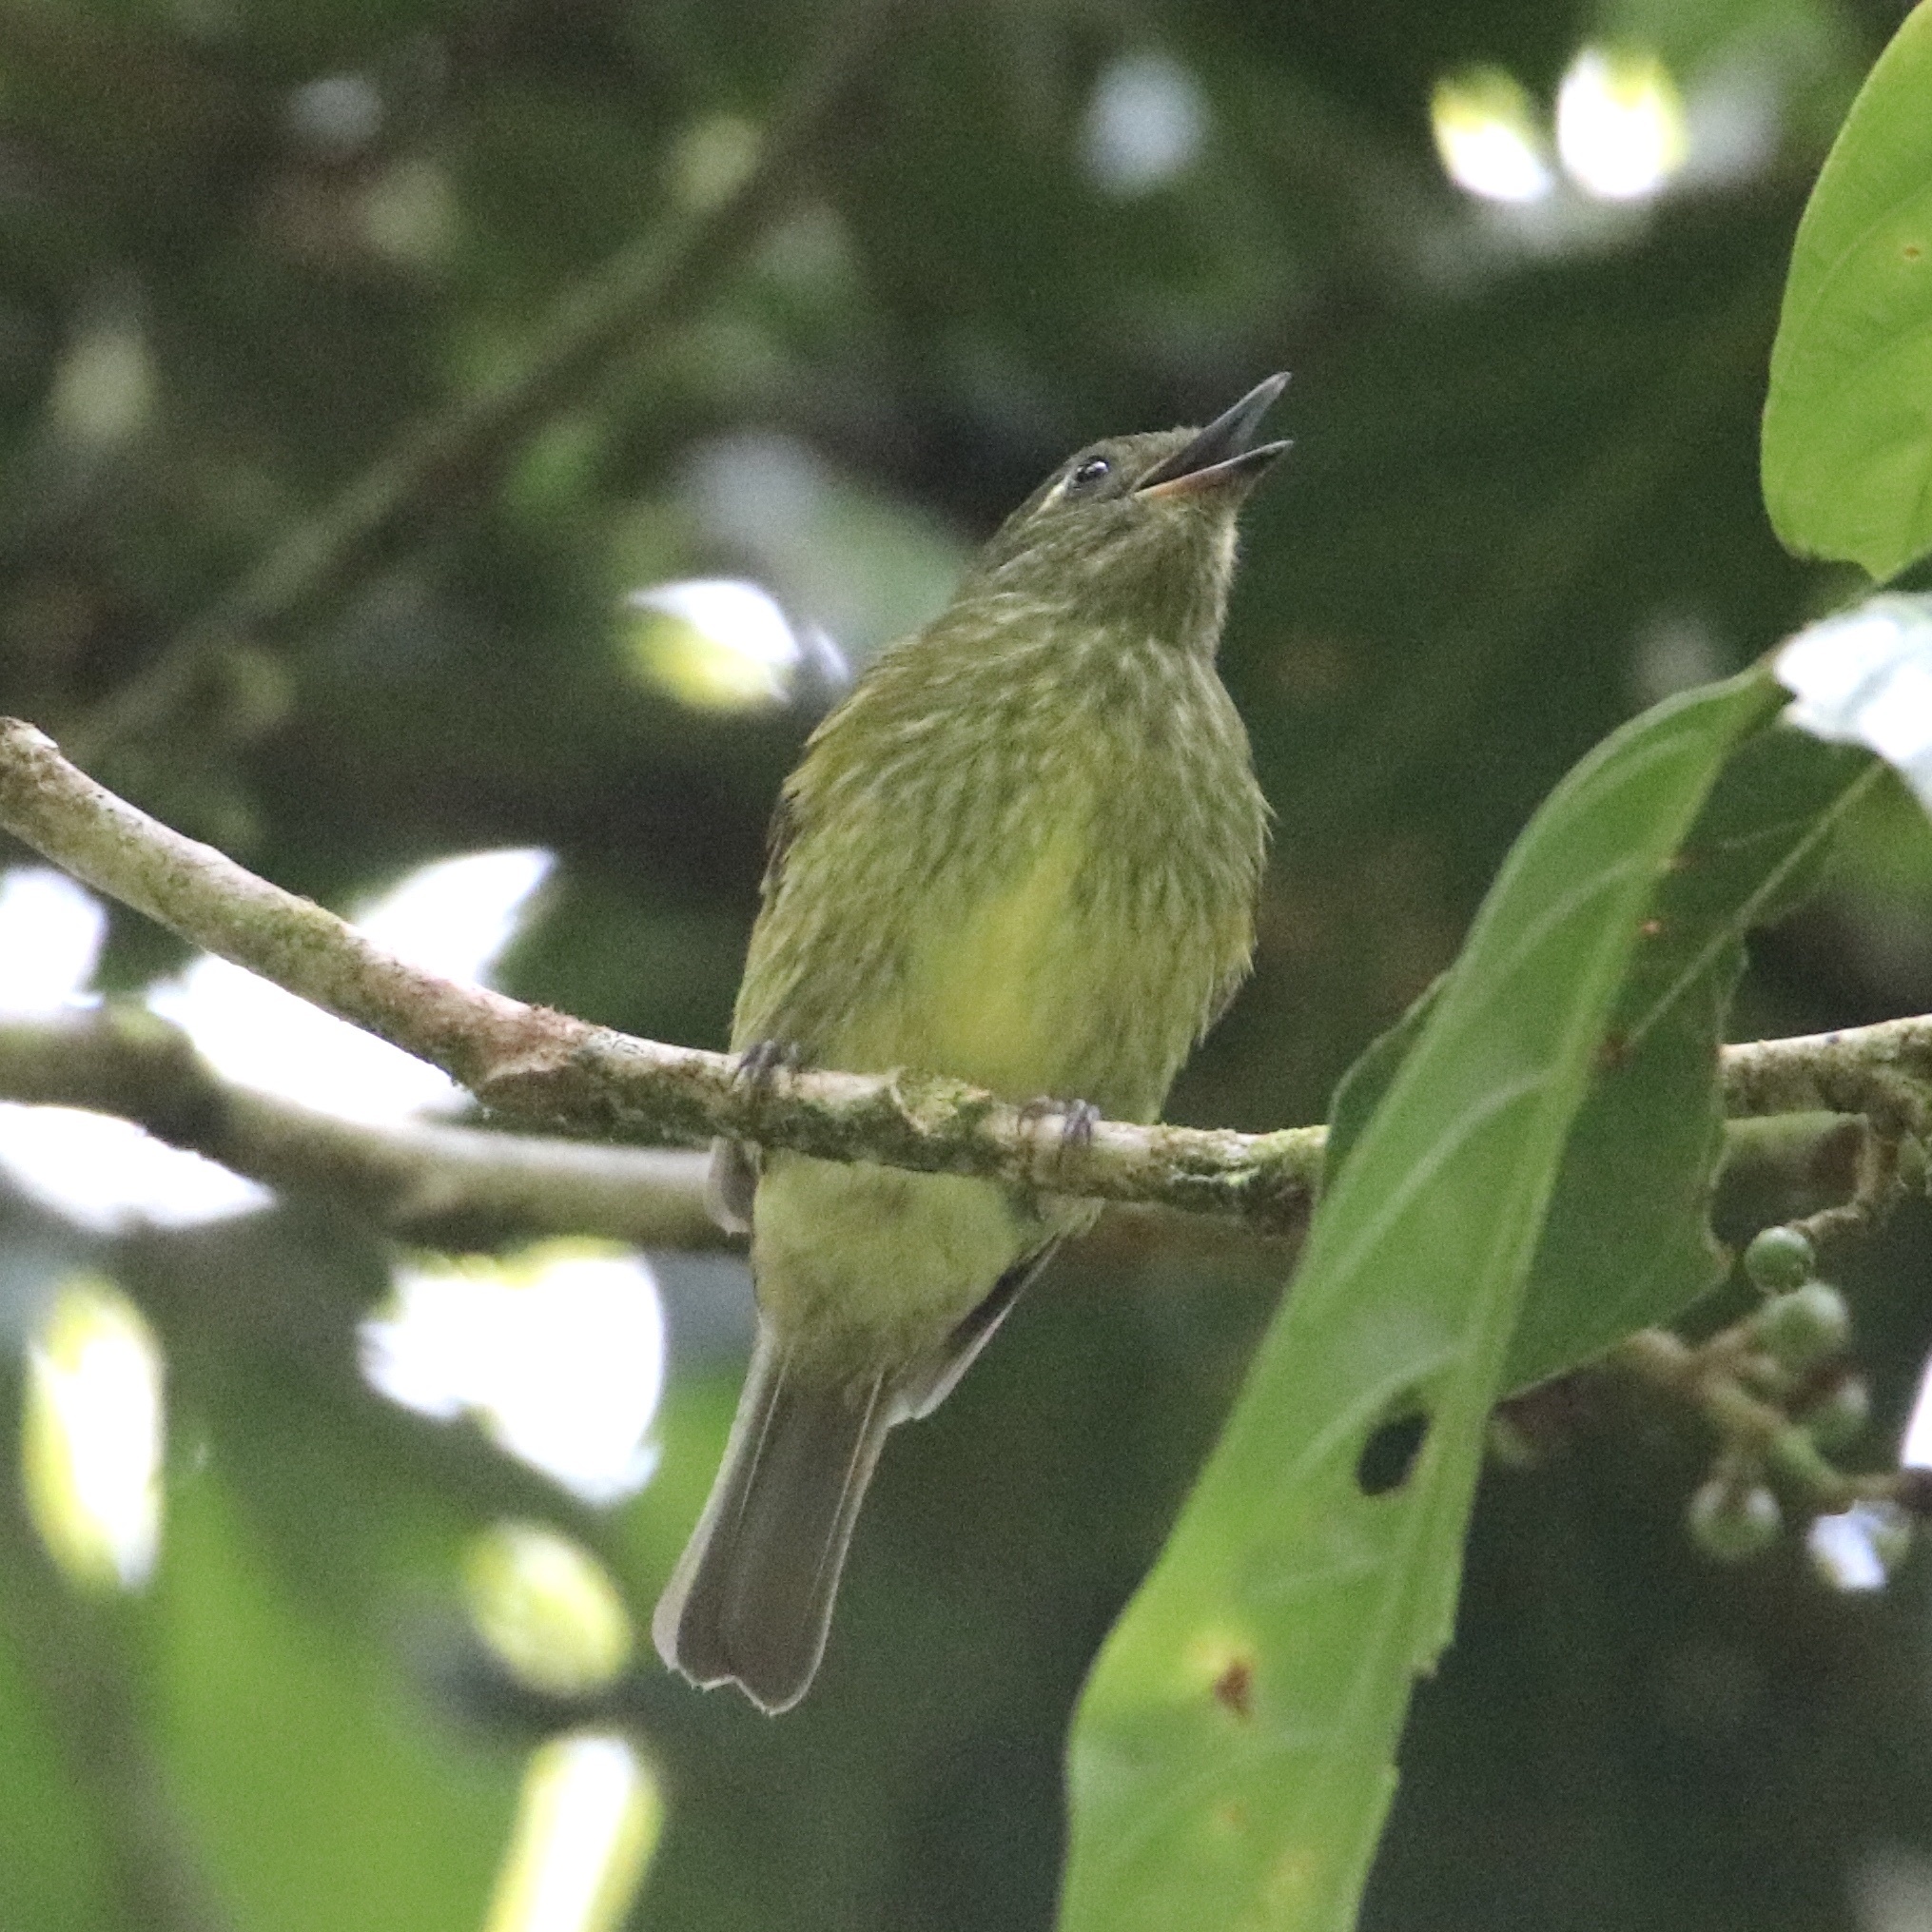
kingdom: Animalia
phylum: Chordata
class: Aves
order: Passeriformes
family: Tyrannidae
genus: Mionectes
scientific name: Mionectes olivaceus
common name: Olive-striped flycatcher
